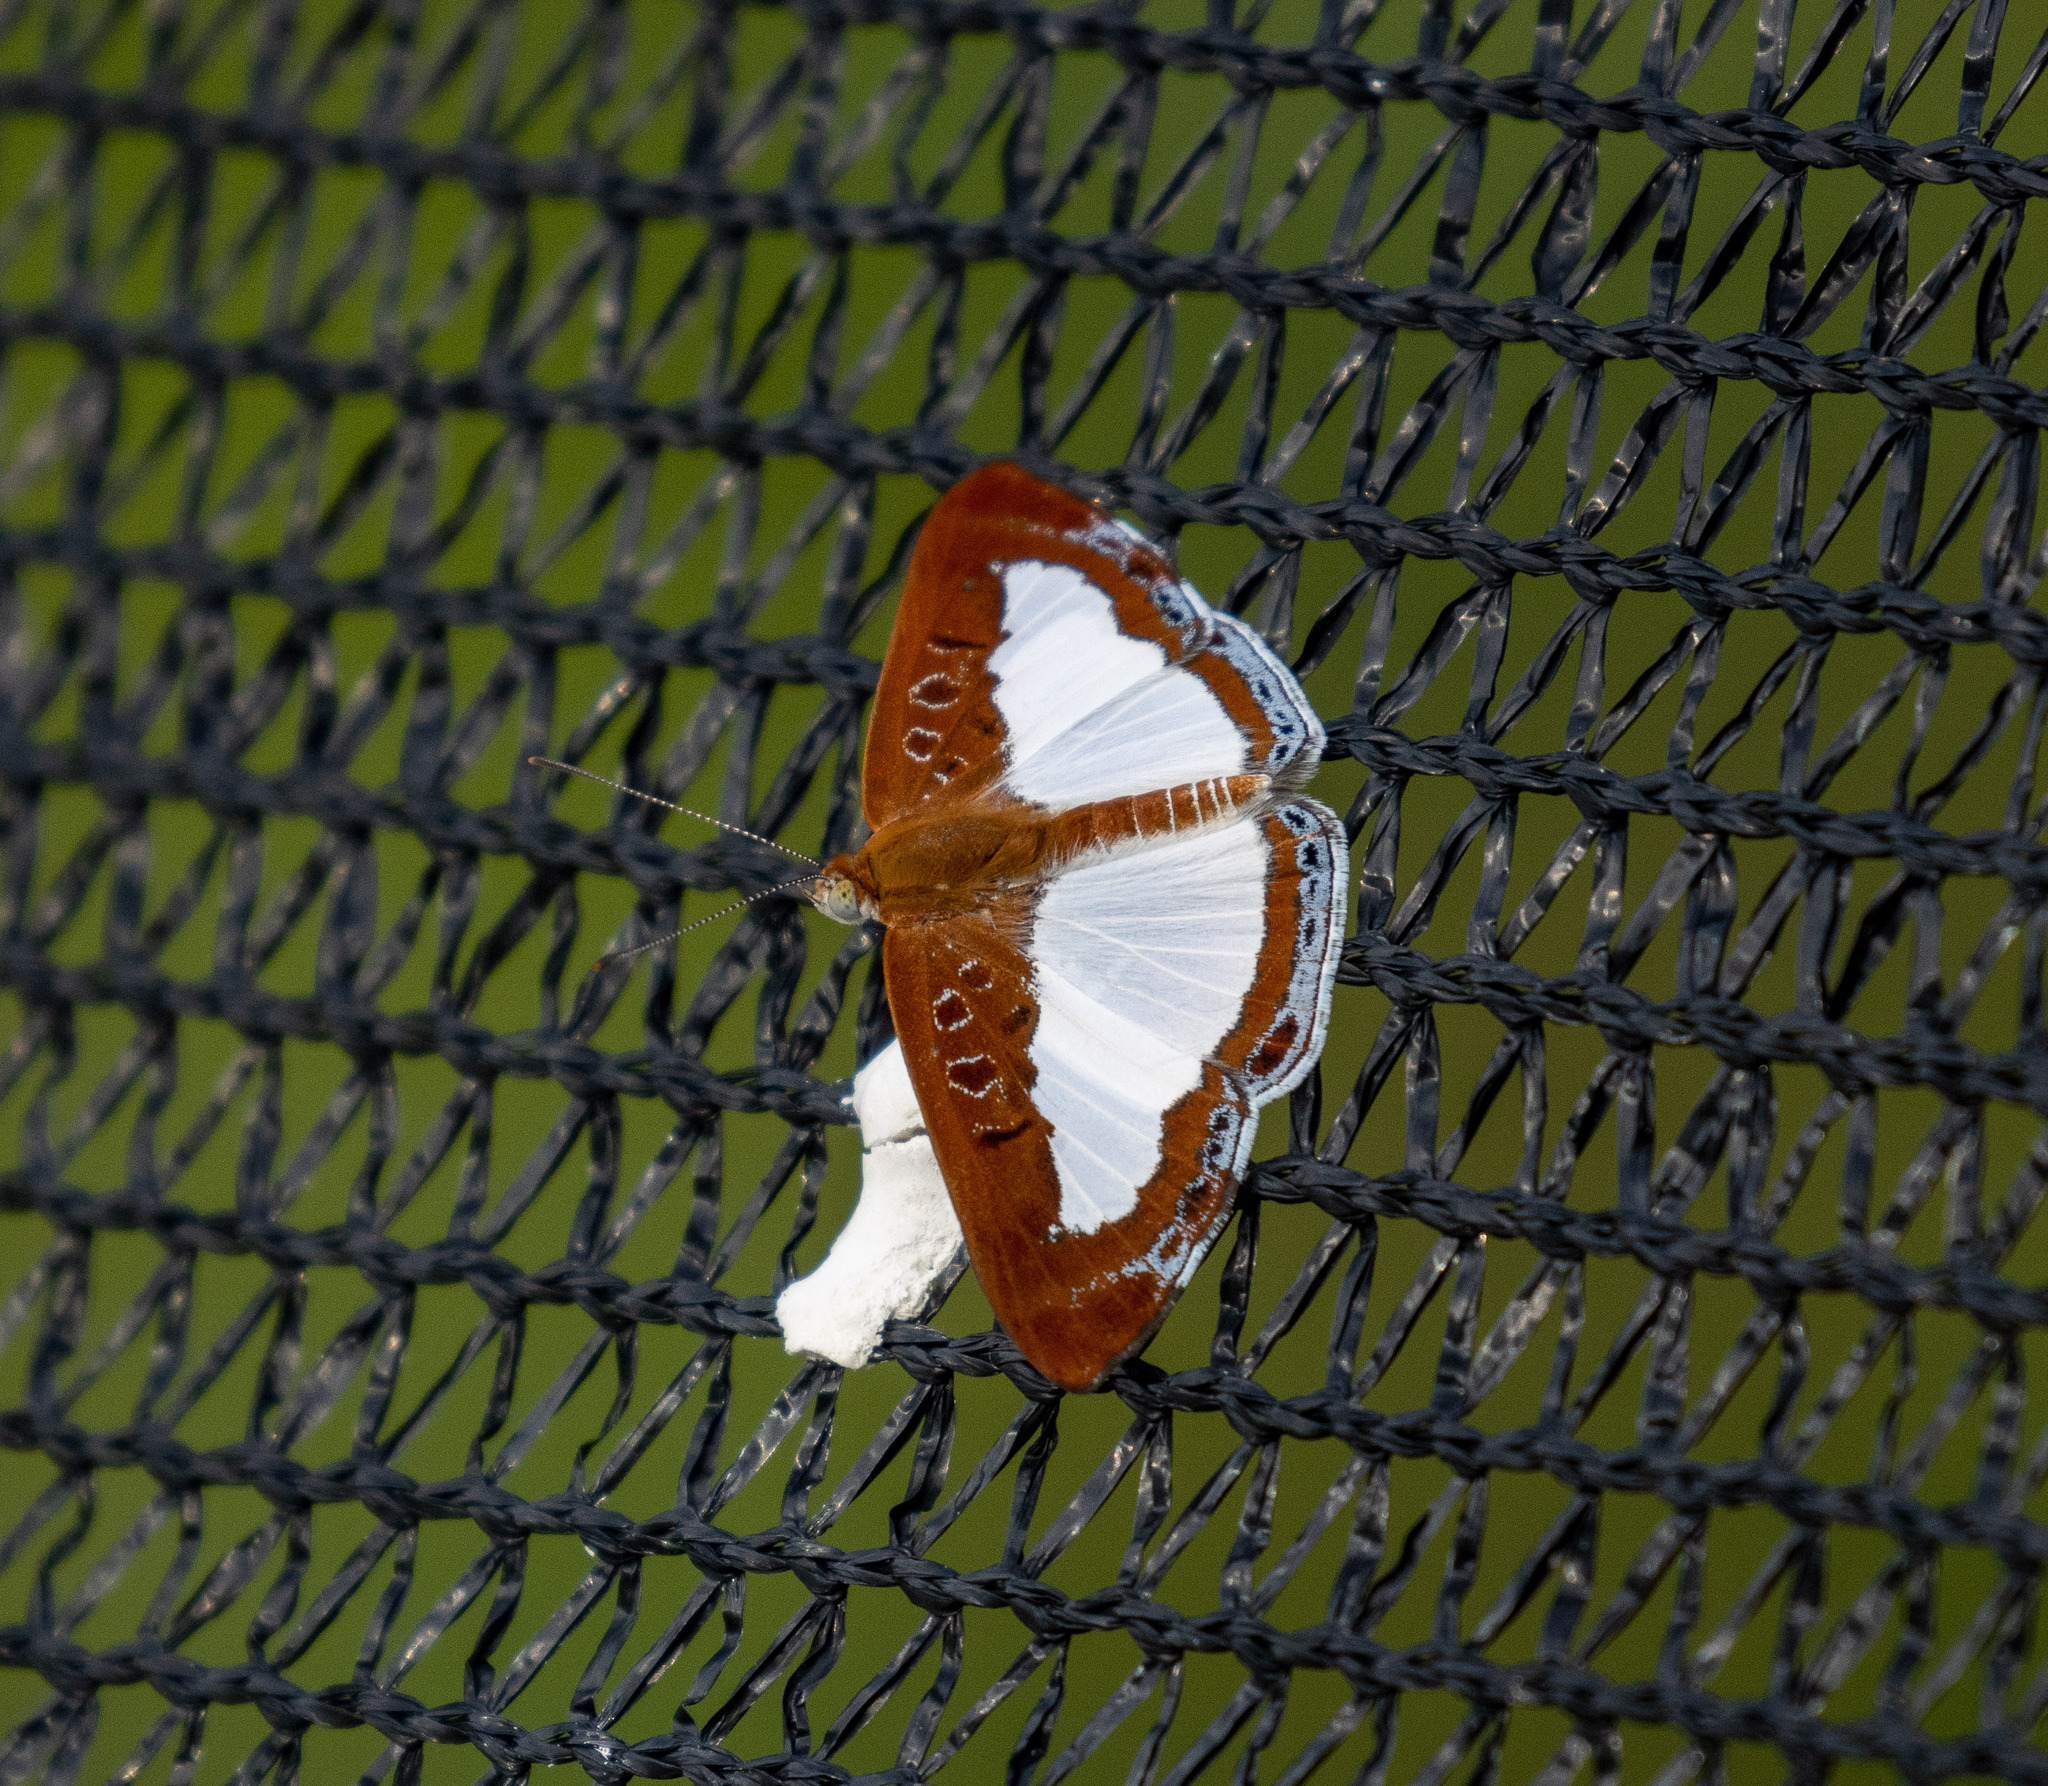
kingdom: Animalia
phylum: Arthropoda
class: Insecta
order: Lepidoptera
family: Riodinidae
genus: Nymula
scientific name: Nymula calyce
